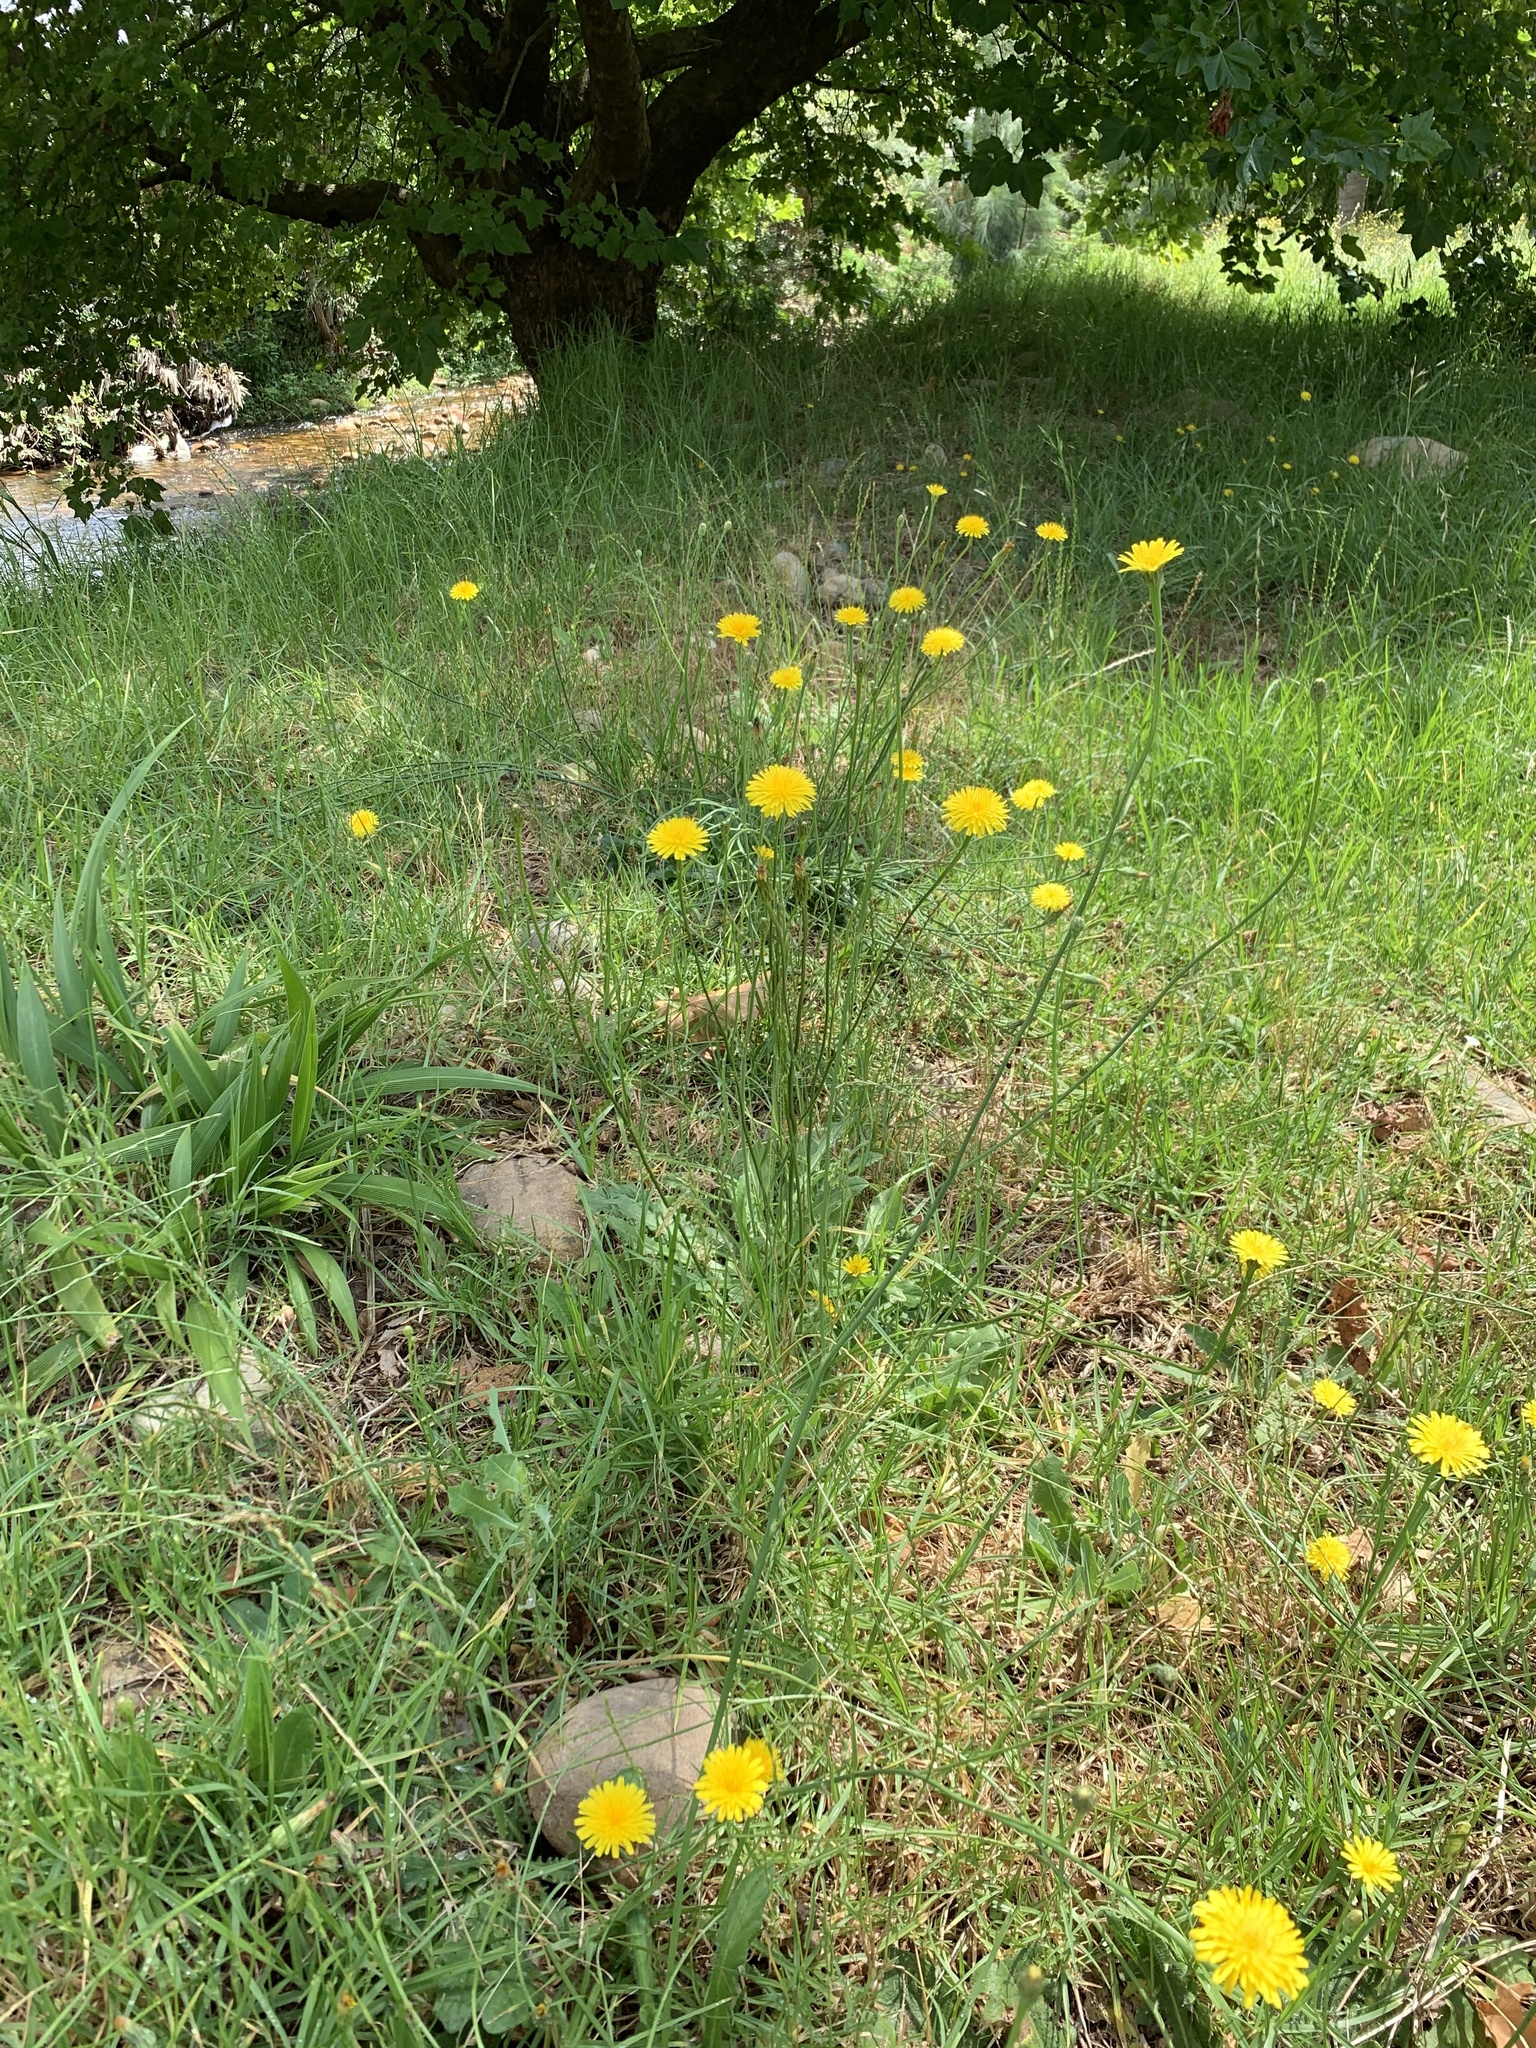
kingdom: Plantae
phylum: Tracheophyta
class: Magnoliopsida
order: Asterales
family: Asteraceae
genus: Hypochaeris
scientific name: Hypochaeris radicata
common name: Flatweed
